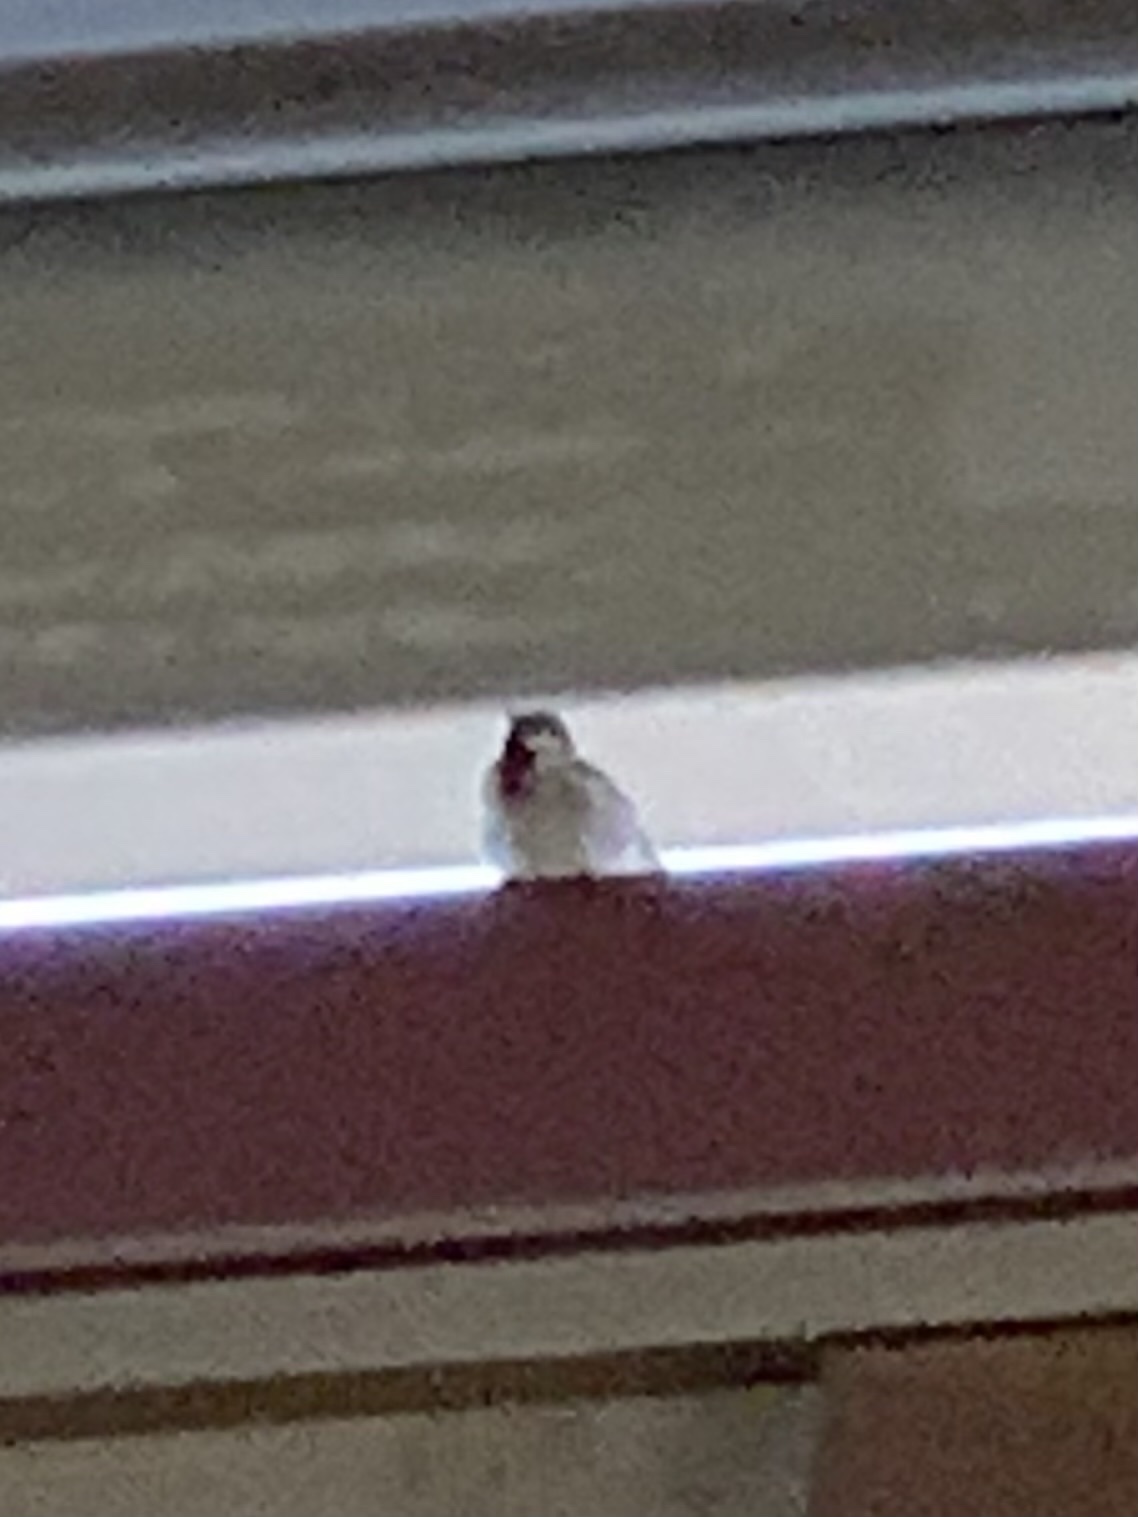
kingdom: Animalia
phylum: Chordata
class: Aves
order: Passeriformes
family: Passeridae
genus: Passer
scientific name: Passer domesticus
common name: House sparrow
